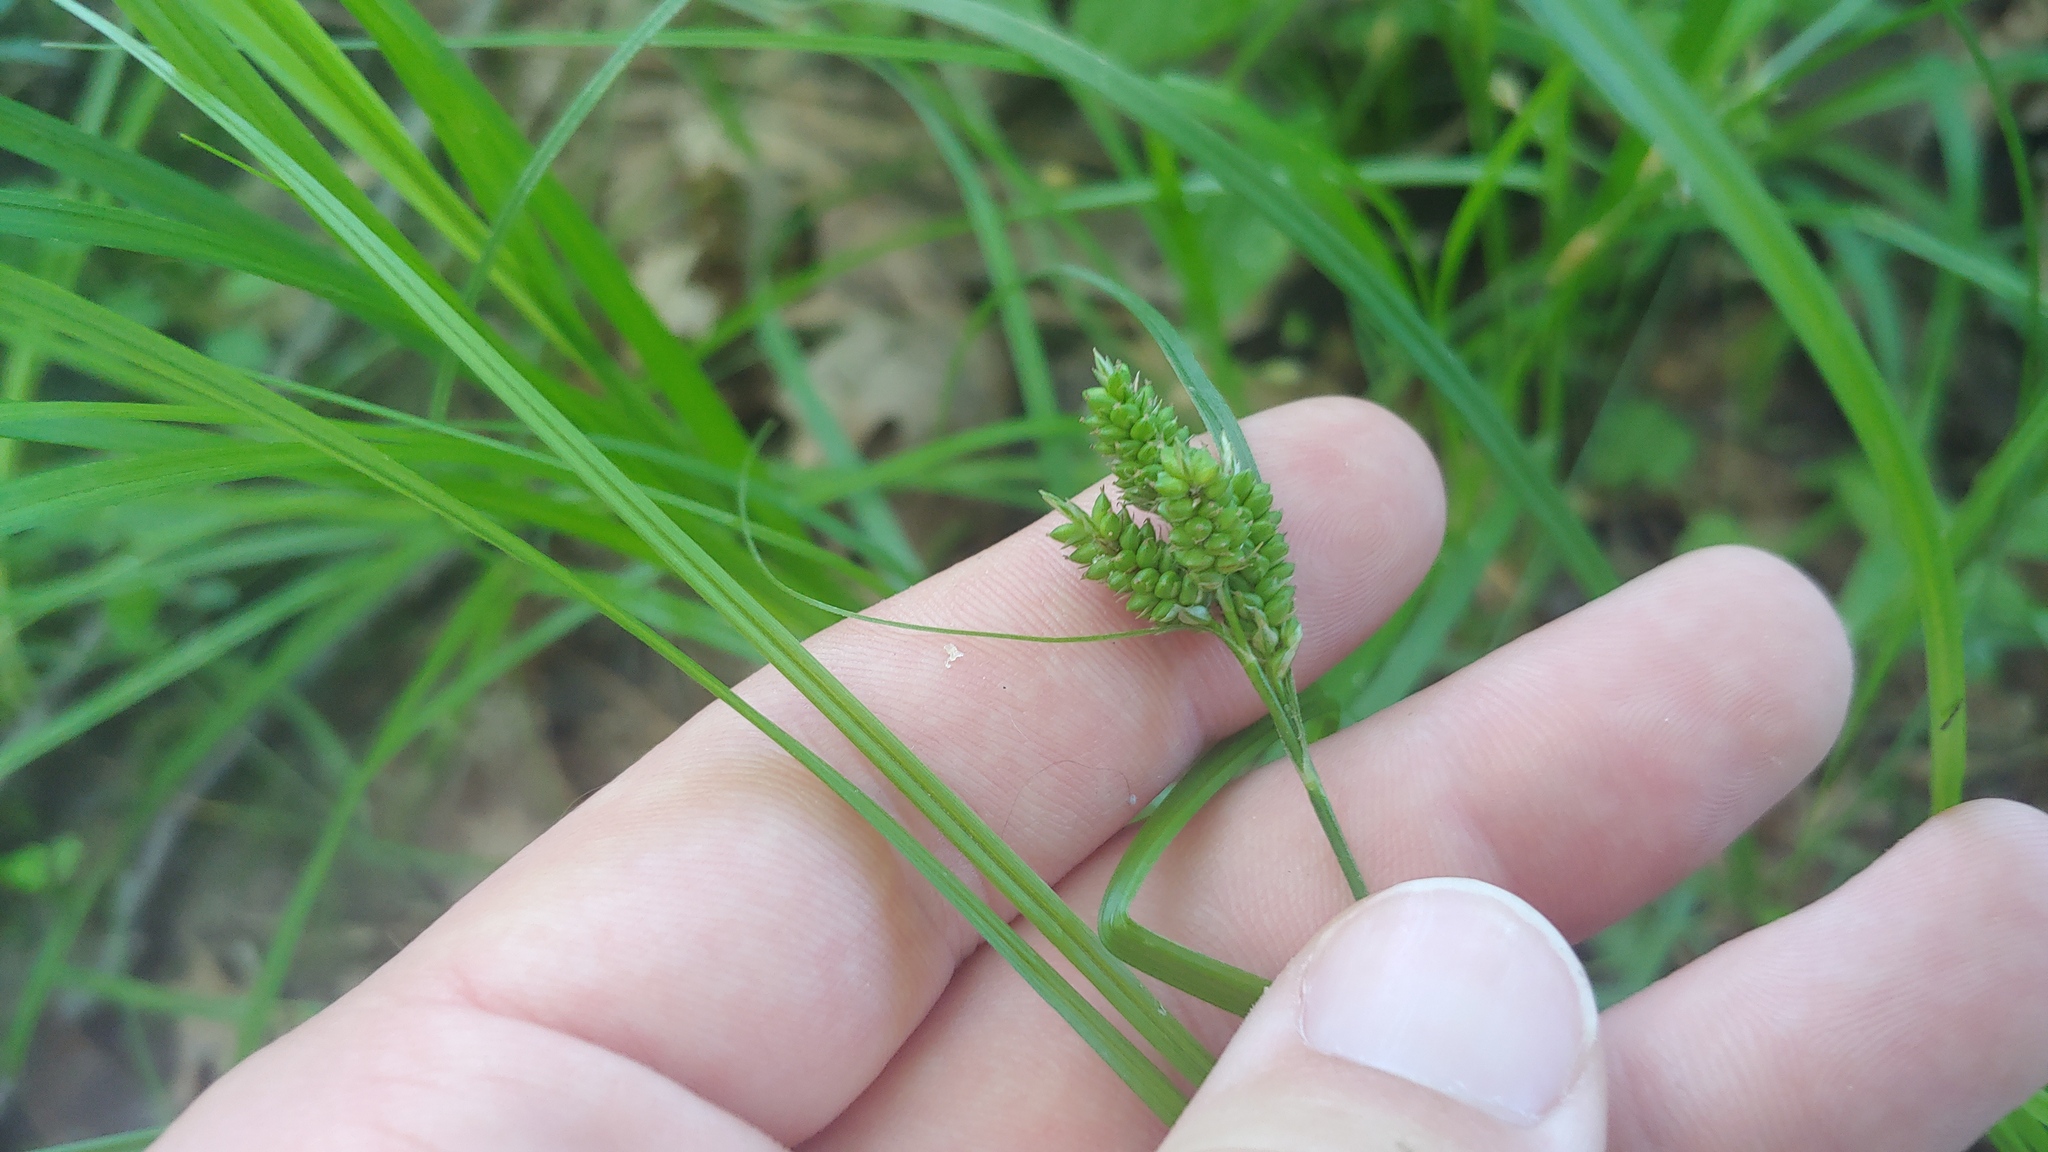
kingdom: Plantae
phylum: Tracheophyta
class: Liliopsida
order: Poales
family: Cyperaceae
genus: Carex
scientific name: Carex hirsutella
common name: Fuzzy wuzzy sedge
